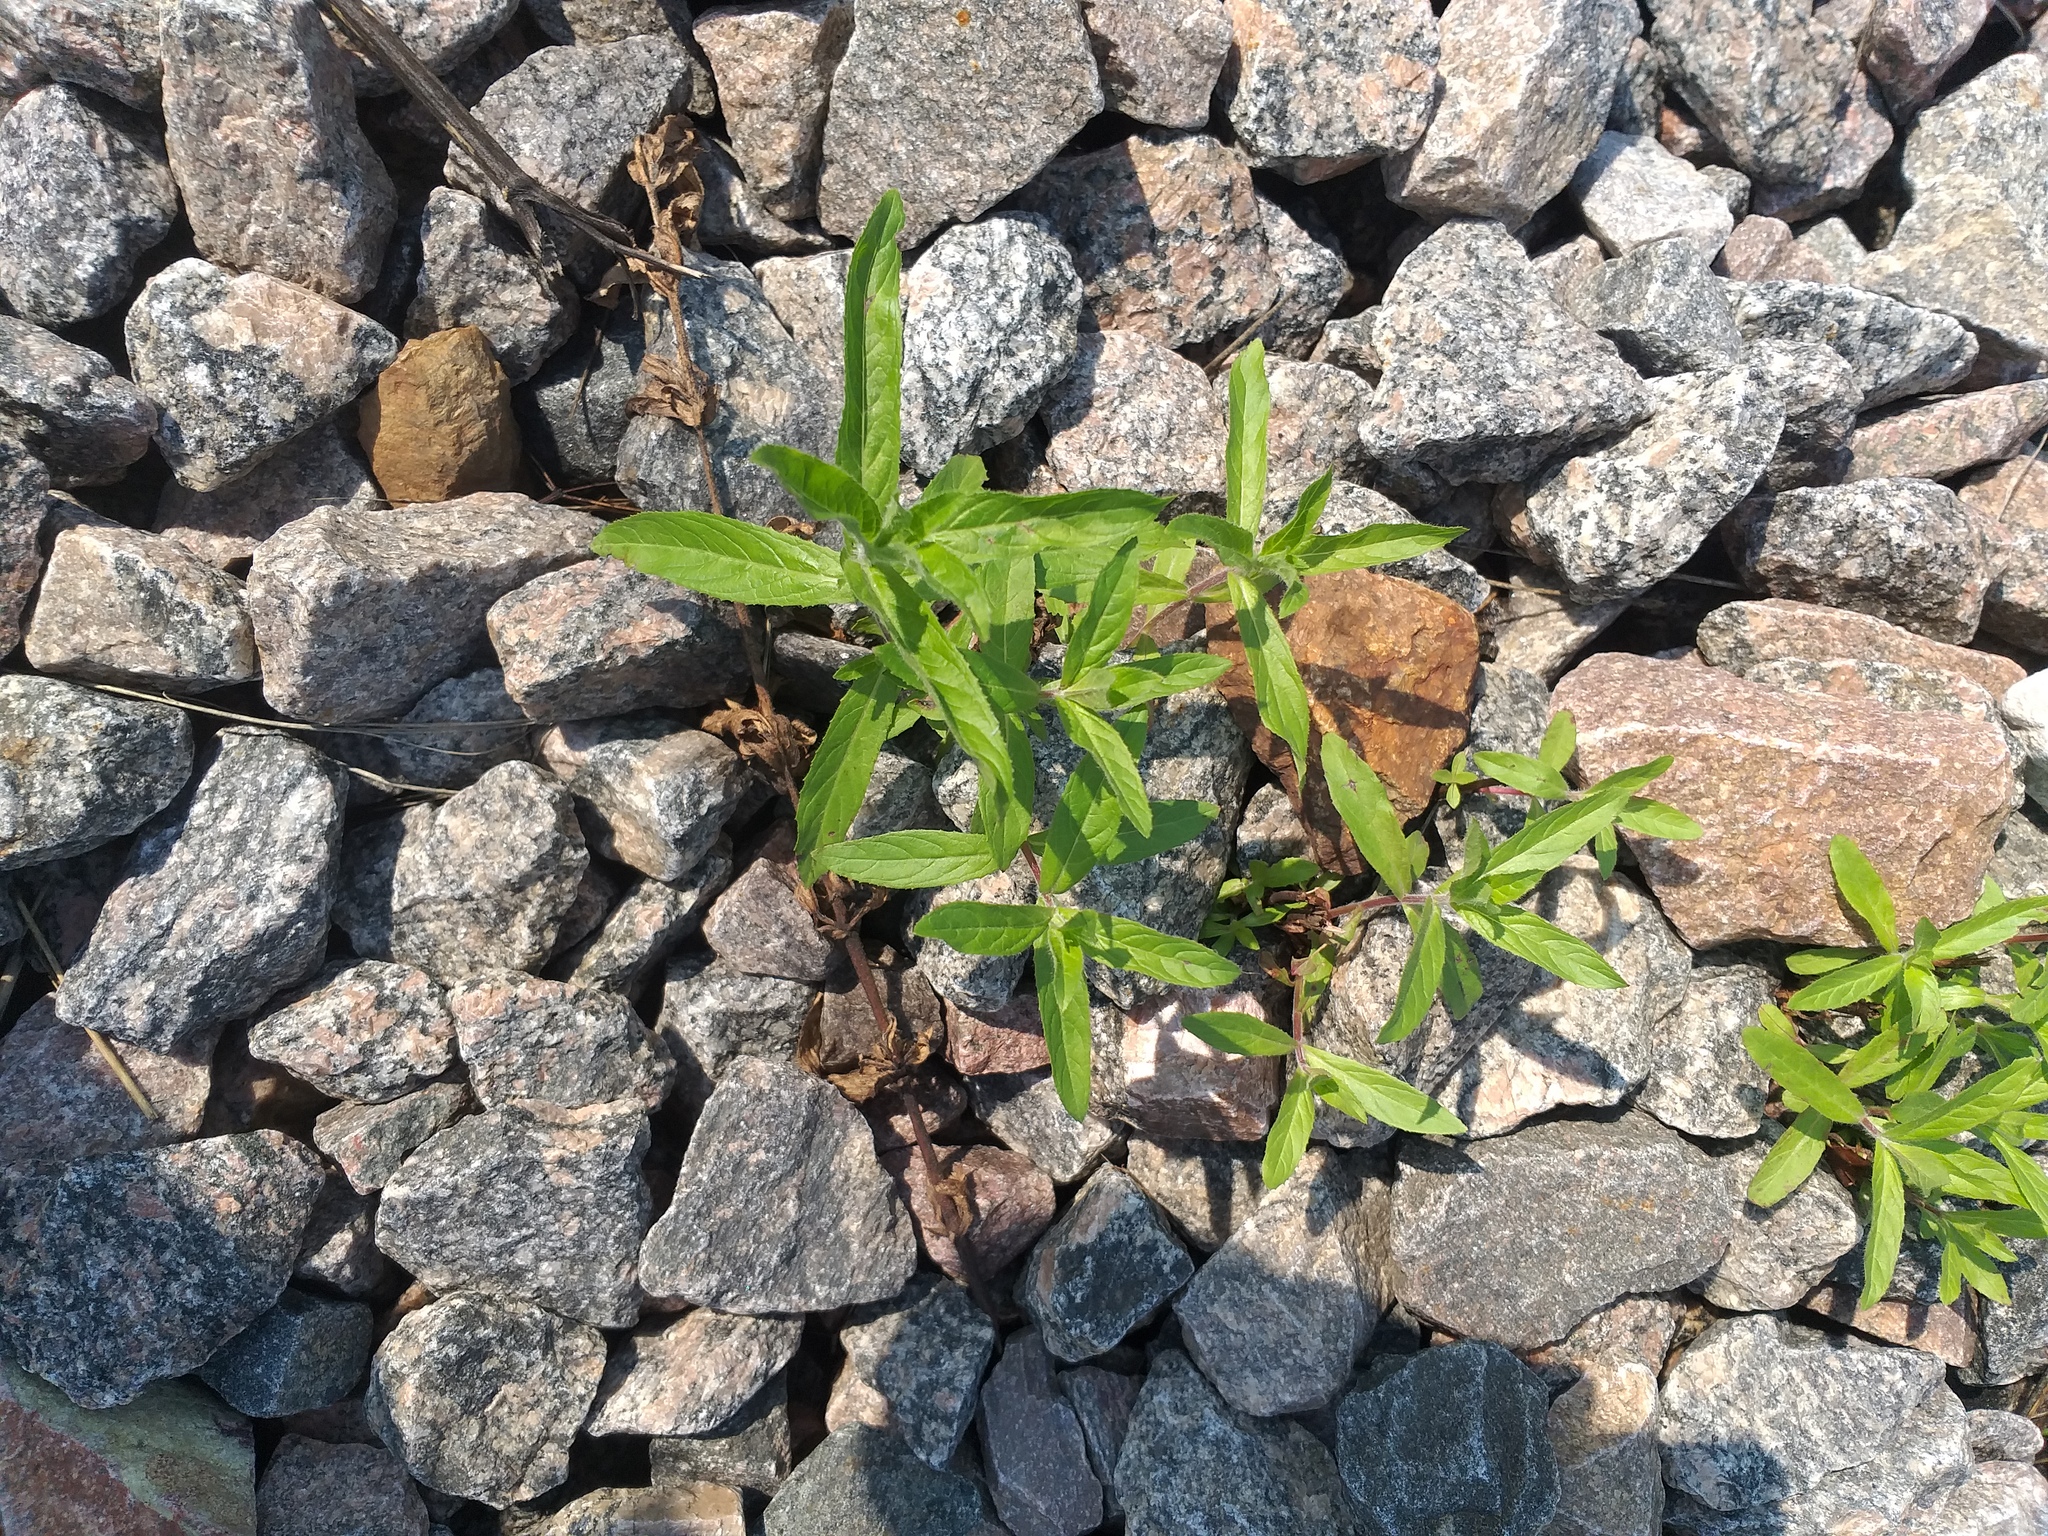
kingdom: Plantae
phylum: Tracheophyta
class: Magnoliopsida
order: Myrtales
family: Onagraceae
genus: Epilobium
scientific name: Epilobium hirsutum
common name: Great willowherb
